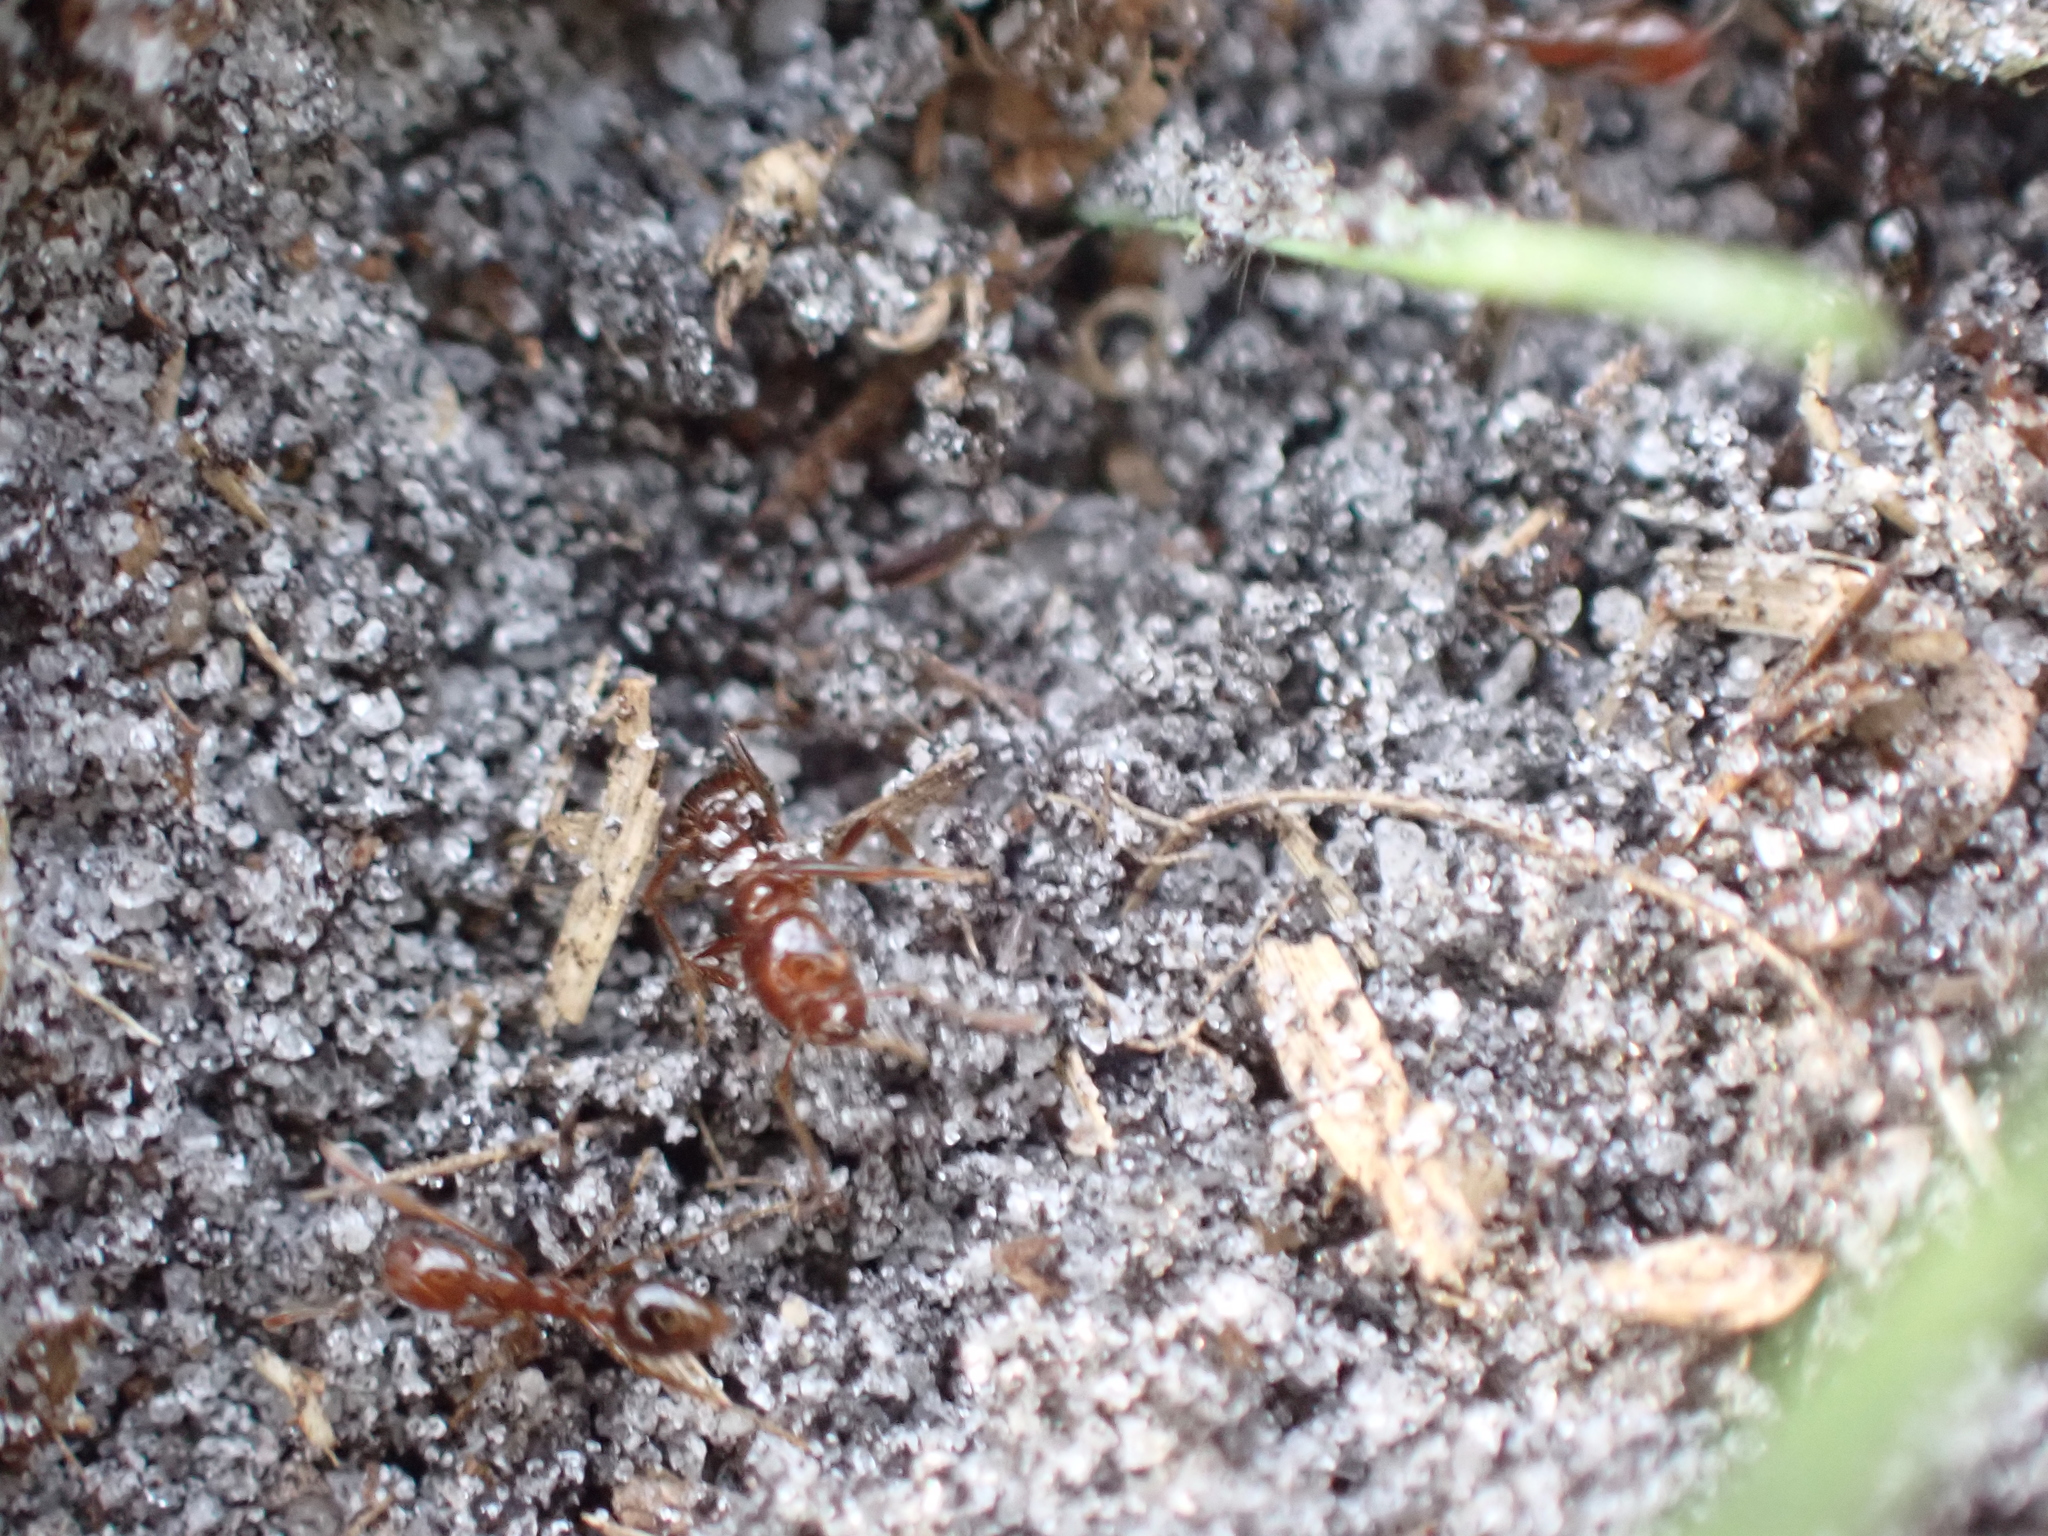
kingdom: Animalia
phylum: Arthropoda
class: Insecta
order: Hymenoptera
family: Formicidae
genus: Solenopsis
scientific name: Solenopsis invicta
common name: Red imported fire ant
